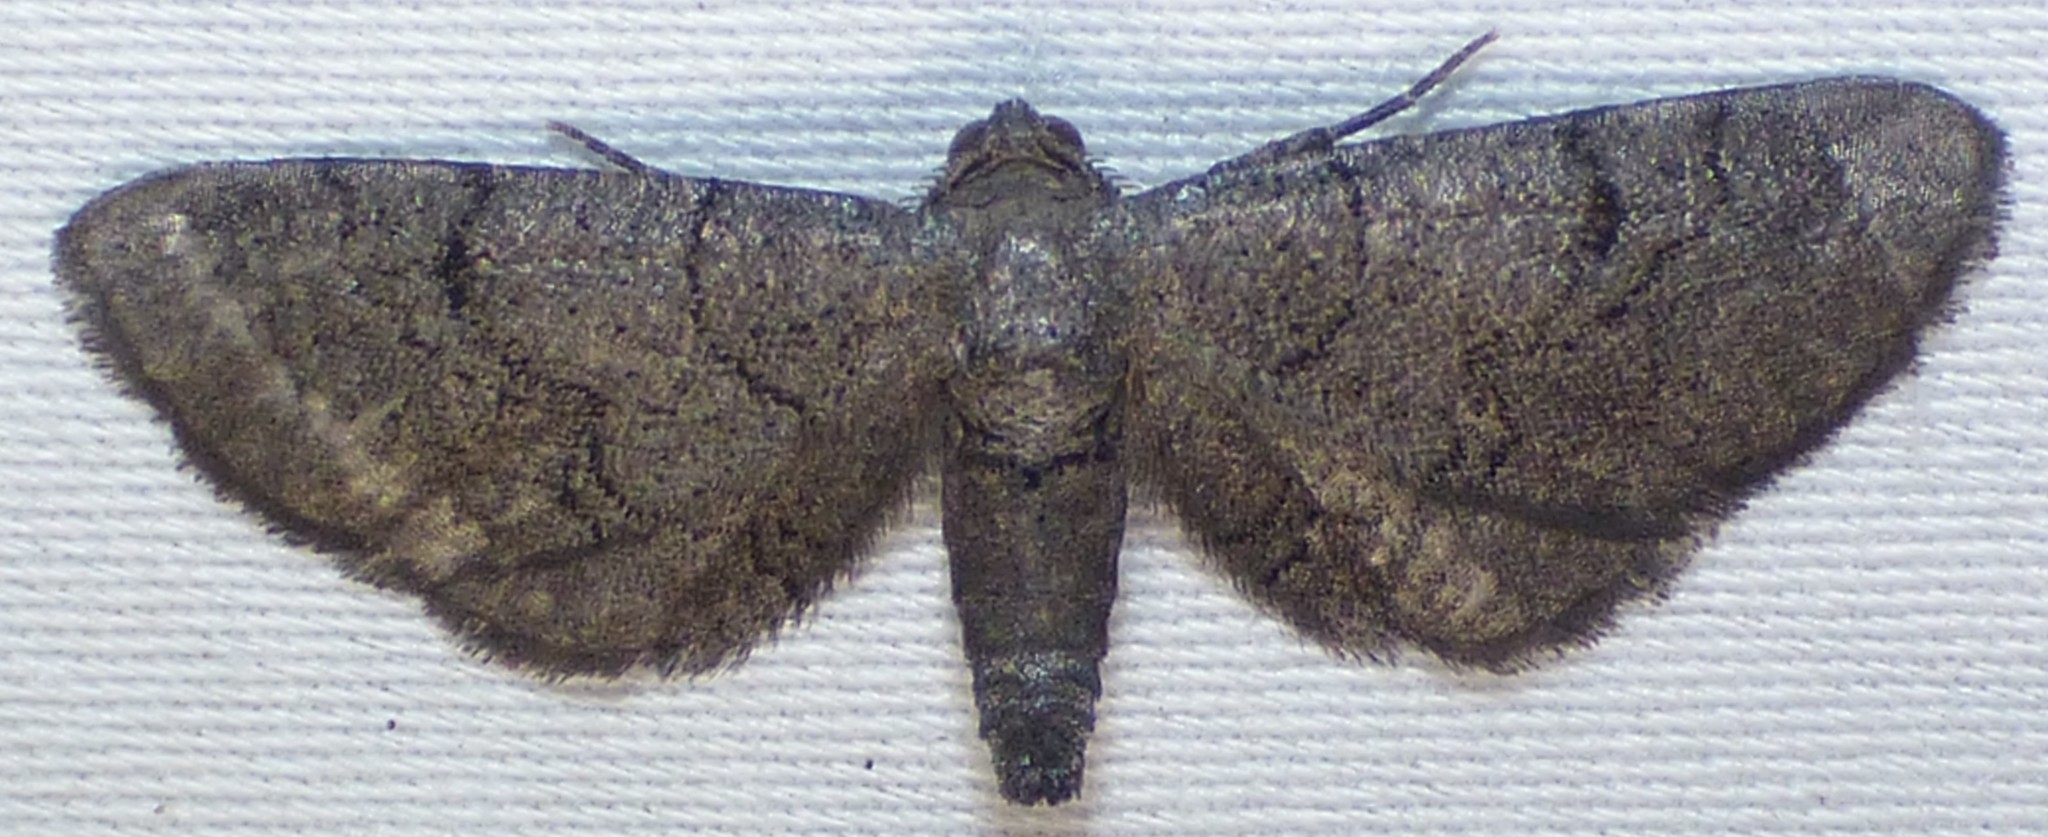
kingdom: Animalia
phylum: Arthropoda
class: Insecta
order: Lepidoptera
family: Geometridae
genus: Exelis
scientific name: Exelis pyrolaria
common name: Fine lined gray
